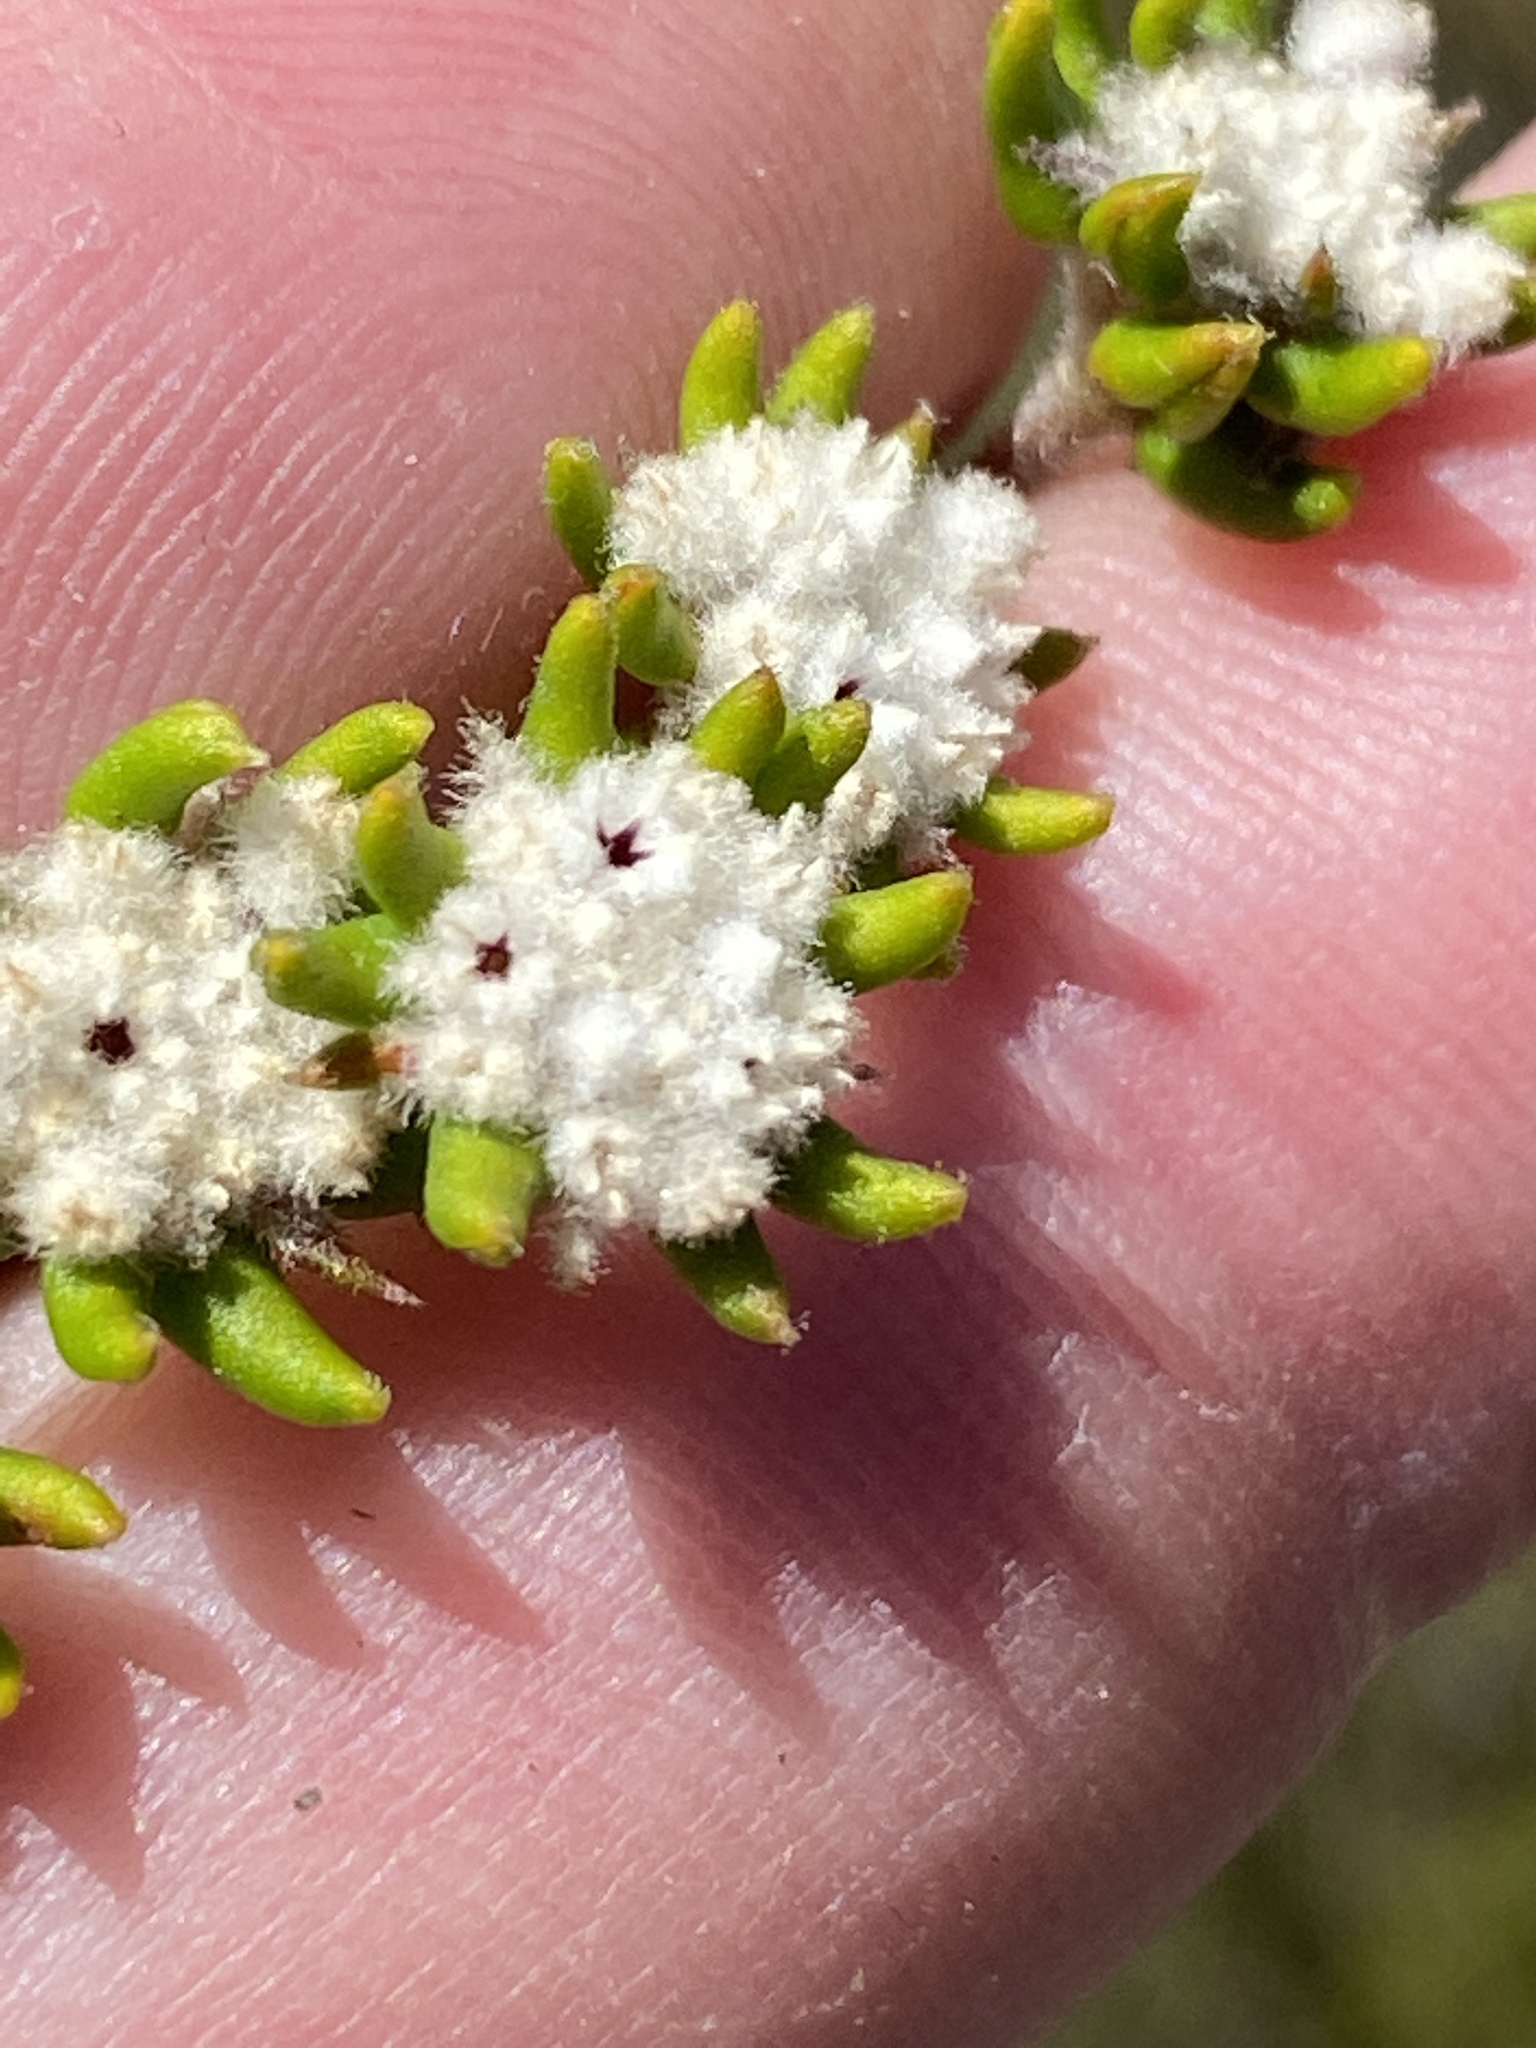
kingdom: Plantae
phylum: Tracheophyta
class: Magnoliopsida
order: Rosales
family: Rhamnaceae
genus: Phylica
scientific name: Phylica debilis
